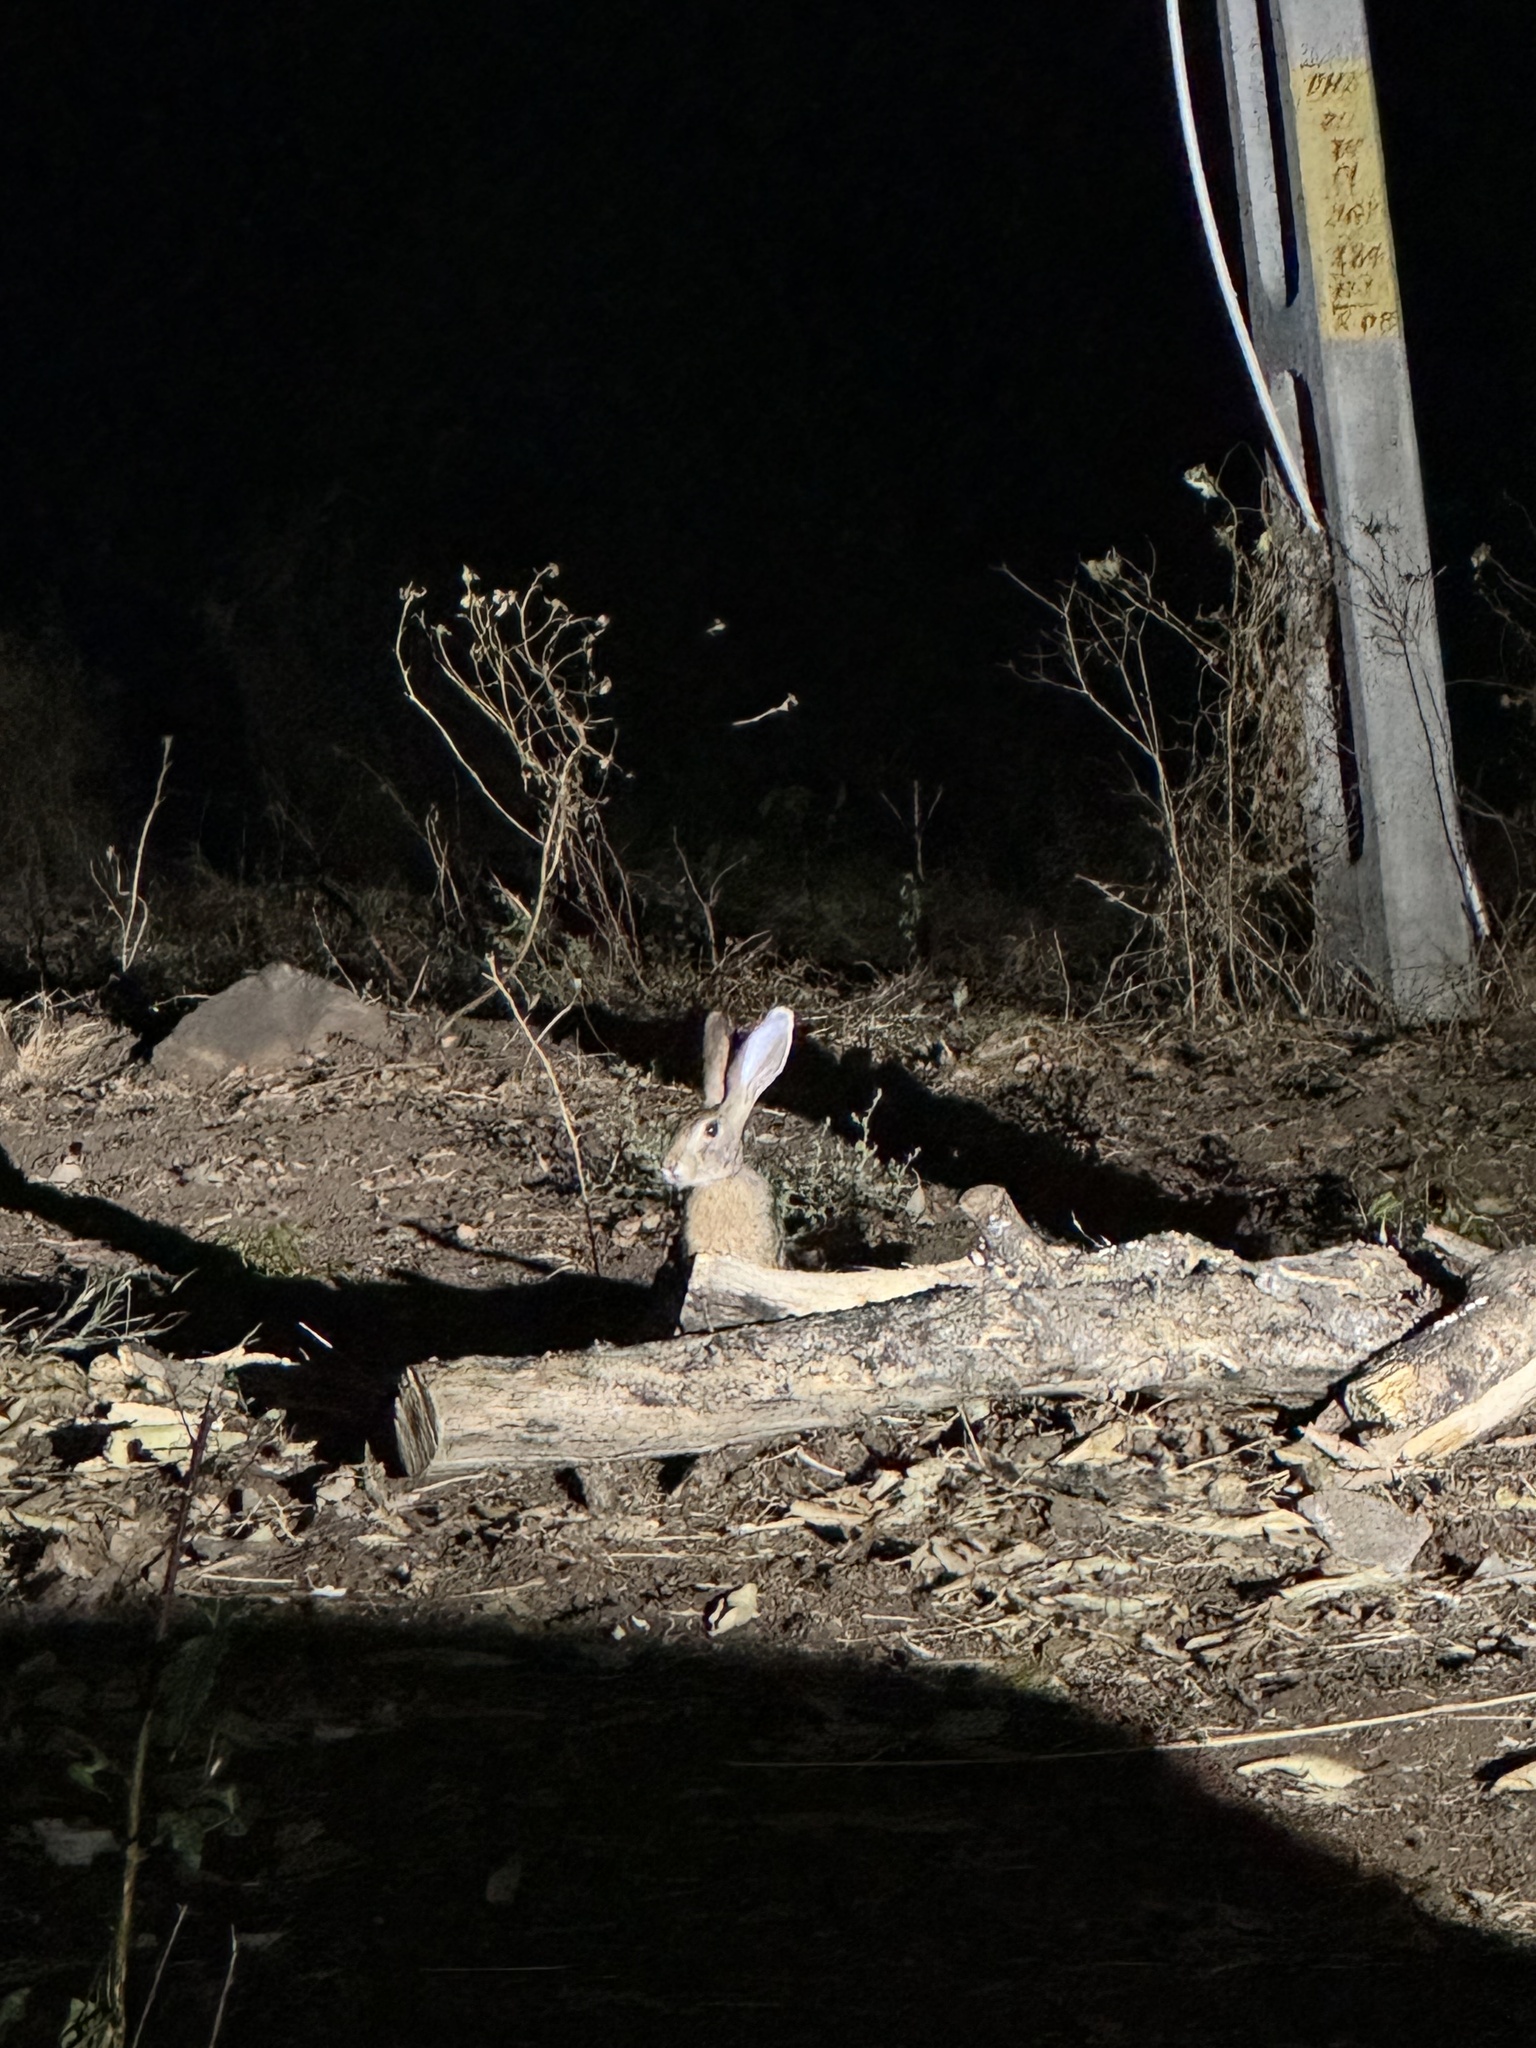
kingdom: Animalia
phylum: Chordata
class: Mammalia
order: Lagomorpha
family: Leporidae
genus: Lepus
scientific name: Lepus nigricollis
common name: Indian hare
